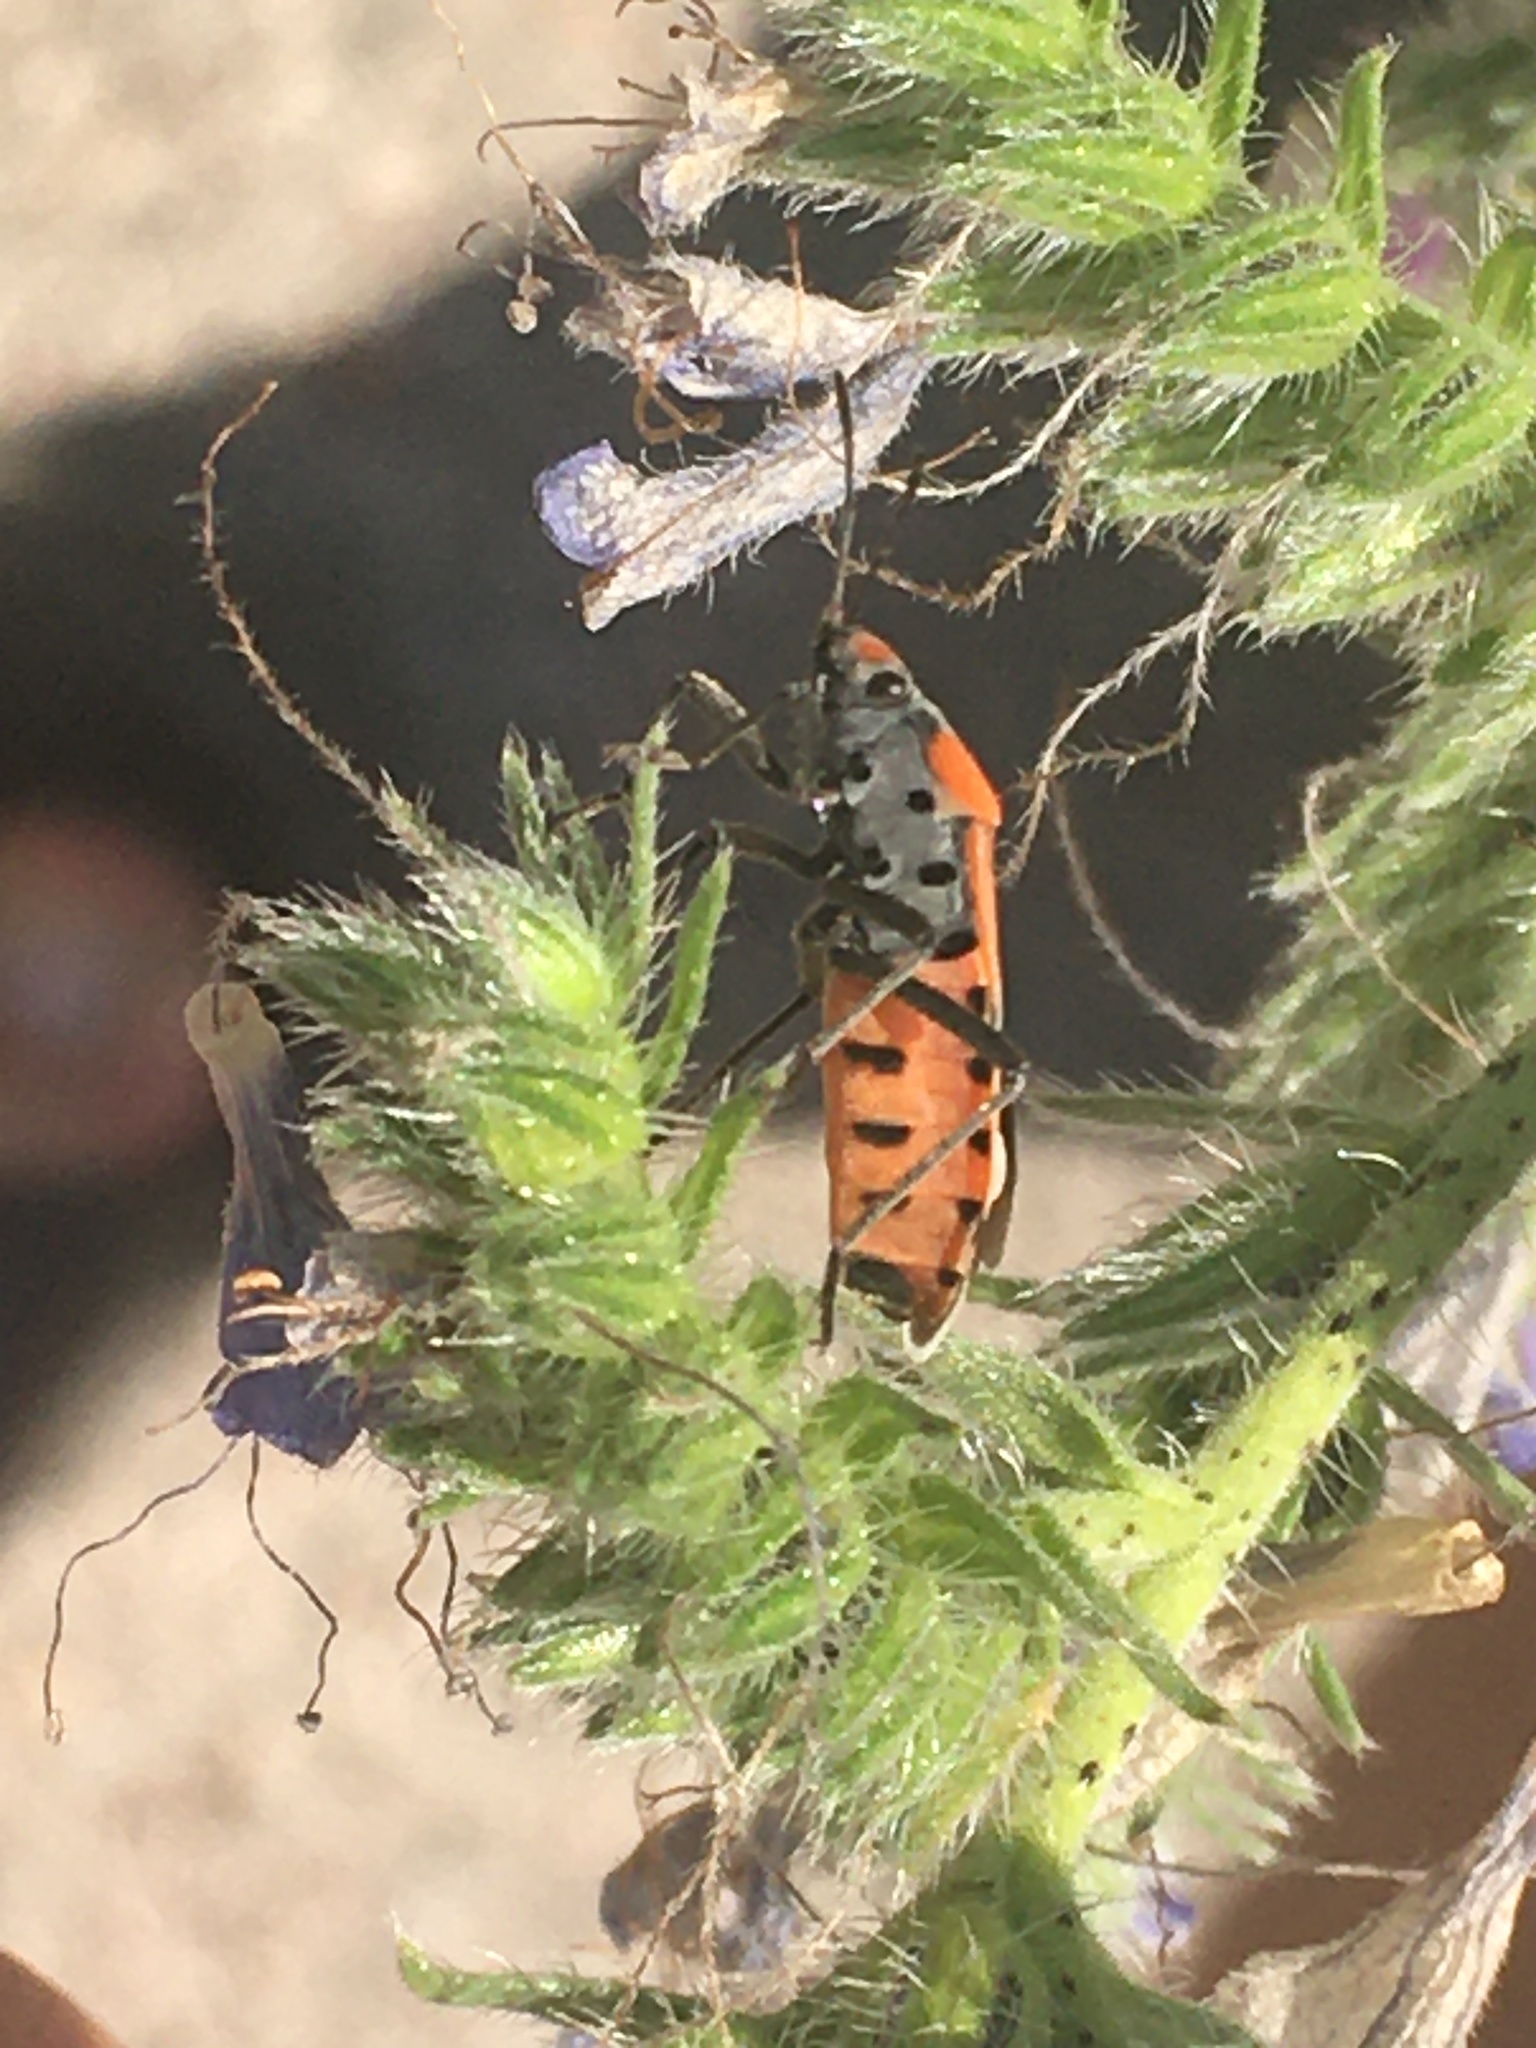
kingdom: Animalia
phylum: Arthropoda
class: Insecta
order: Hemiptera
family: Lygaeidae
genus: Lygaeus
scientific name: Lygaeus equestris
